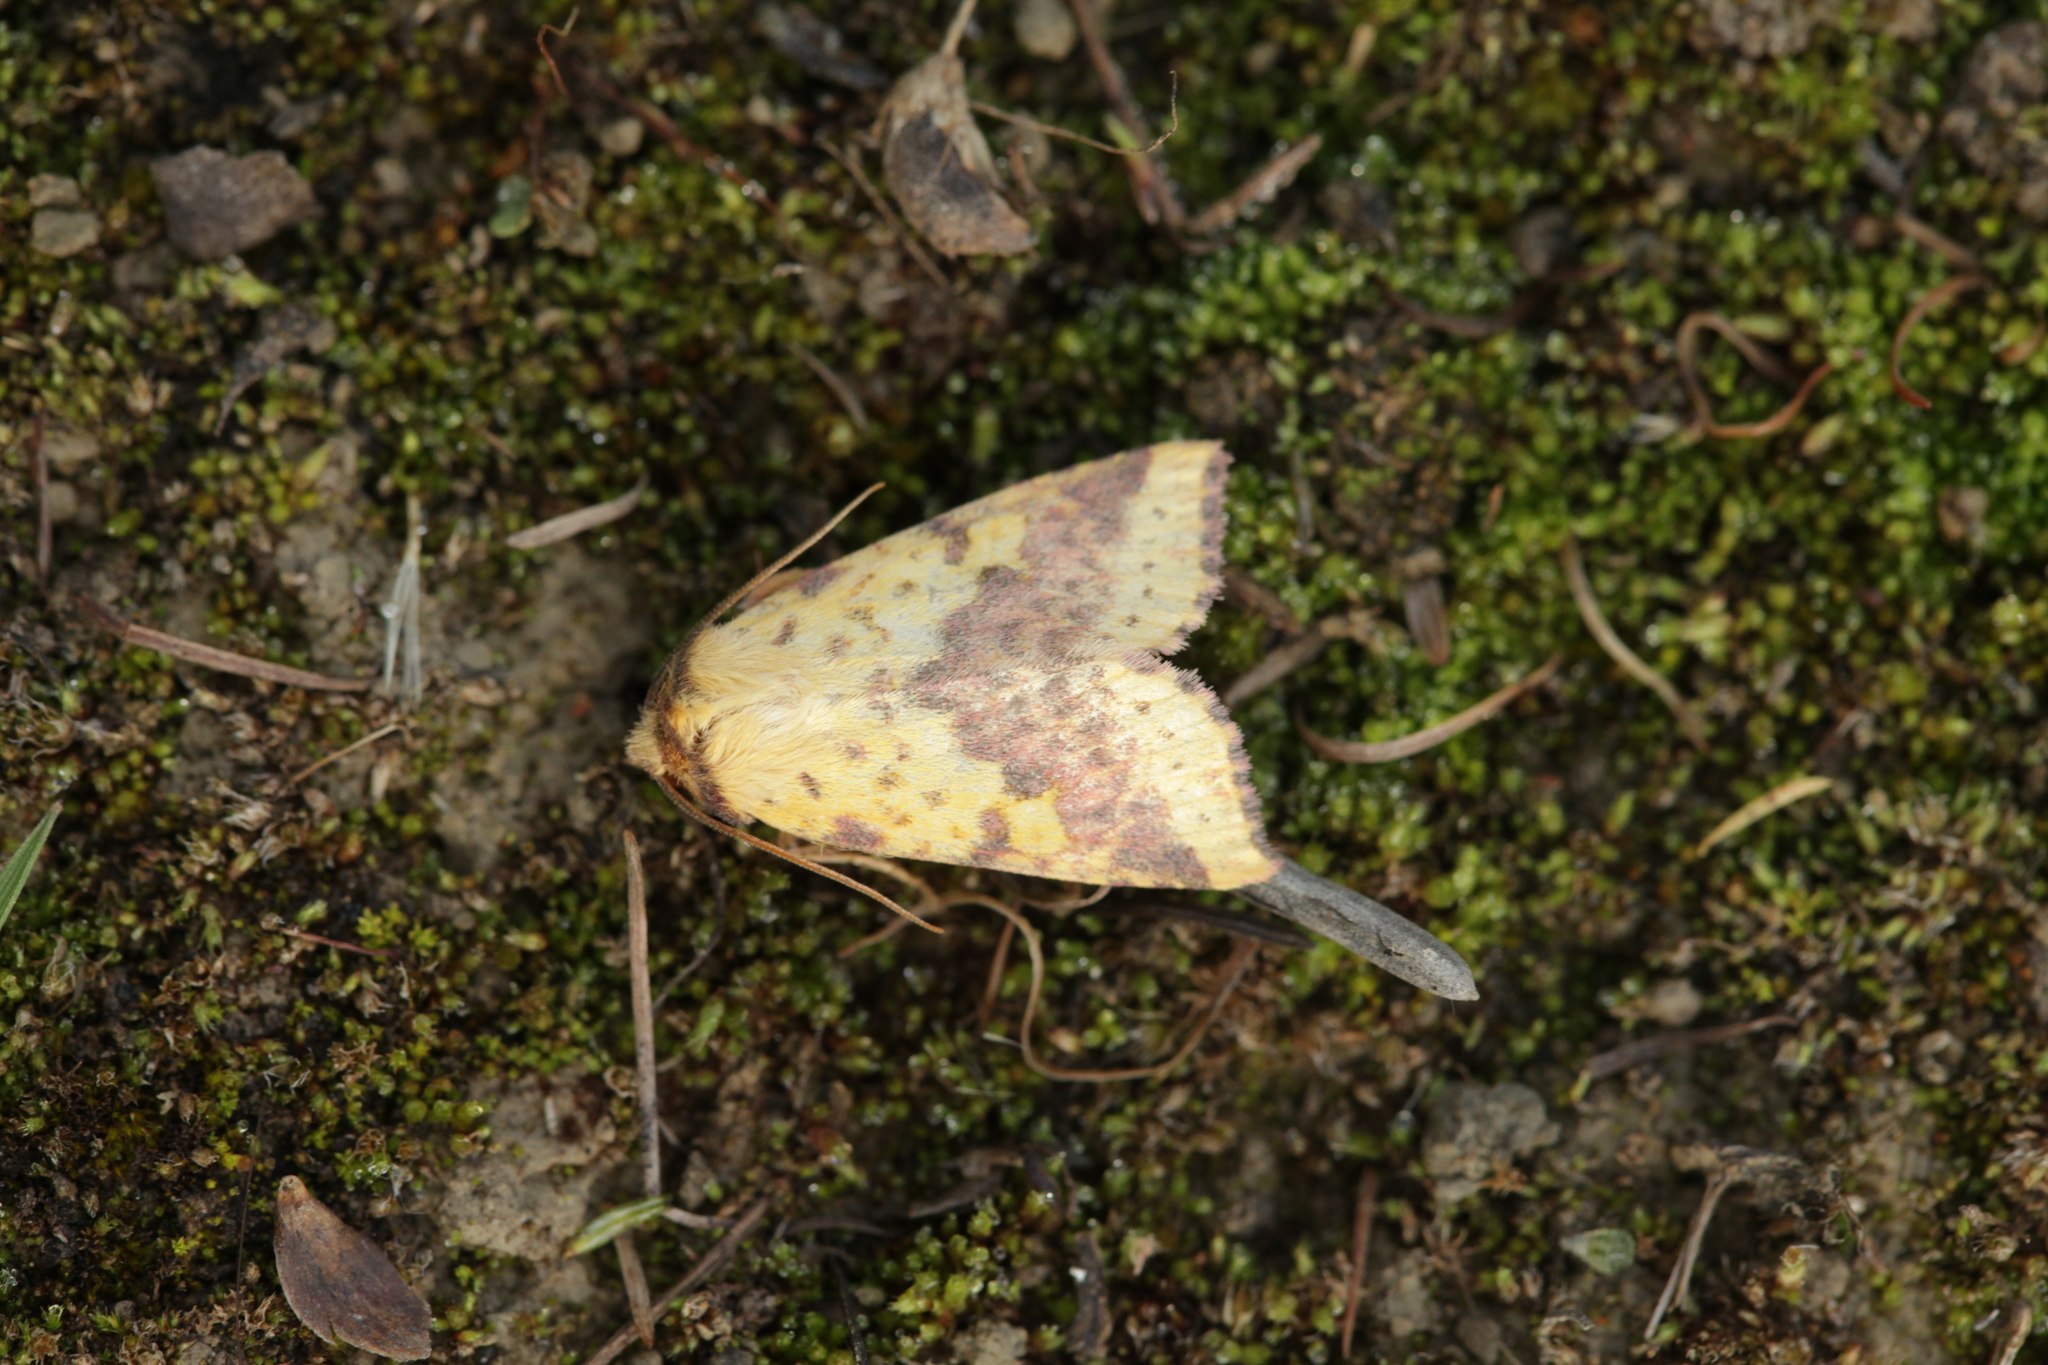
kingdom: Animalia
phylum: Arthropoda
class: Insecta
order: Lepidoptera
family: Noctuidae
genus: Xanthia
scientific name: Xanthia togata
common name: Pink-barred sallow
